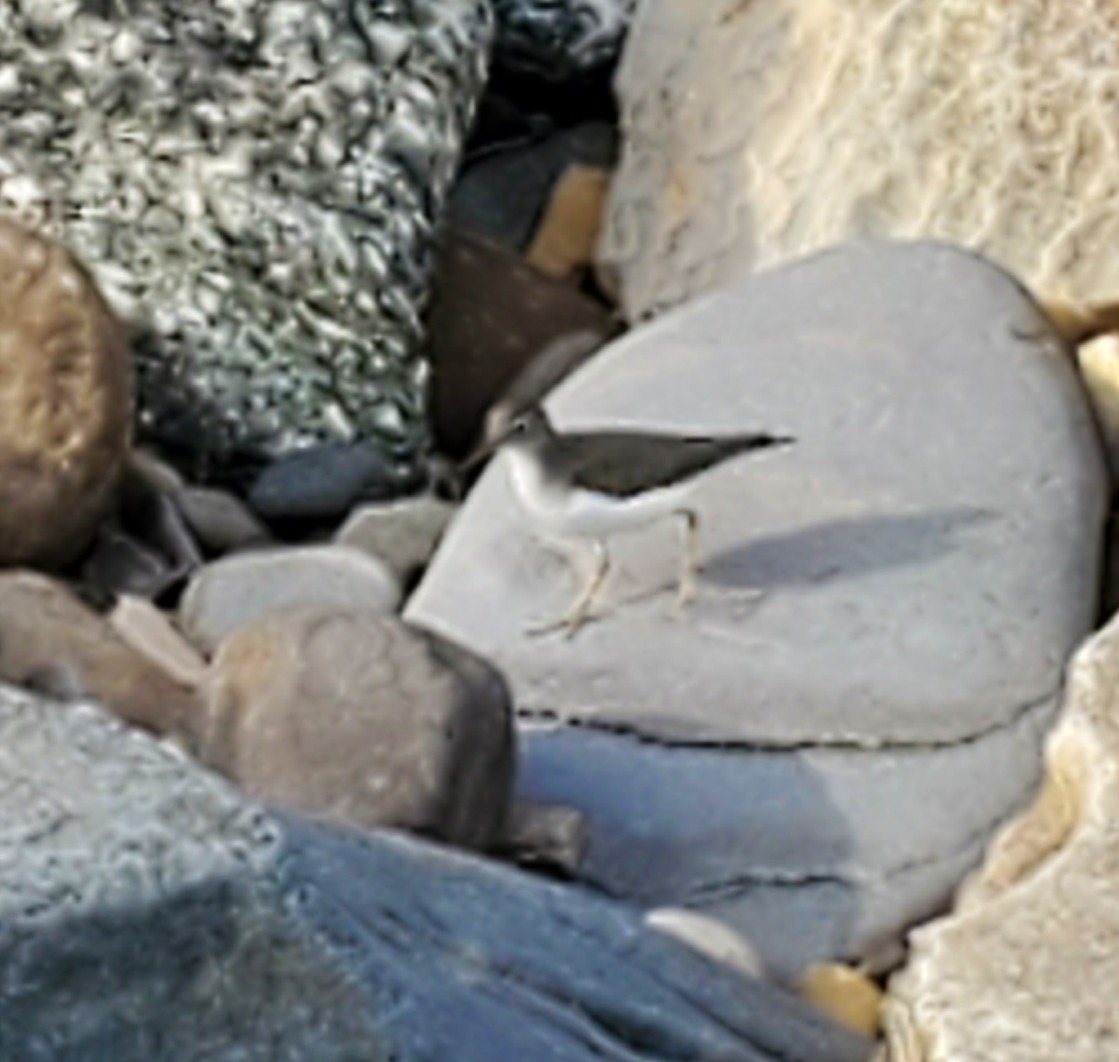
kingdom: Animalia
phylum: Chordata
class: Aves
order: Charadriiformes
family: Scolopacidae
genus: Actitis
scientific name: Actitis macularius
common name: Spotted sandpiper
